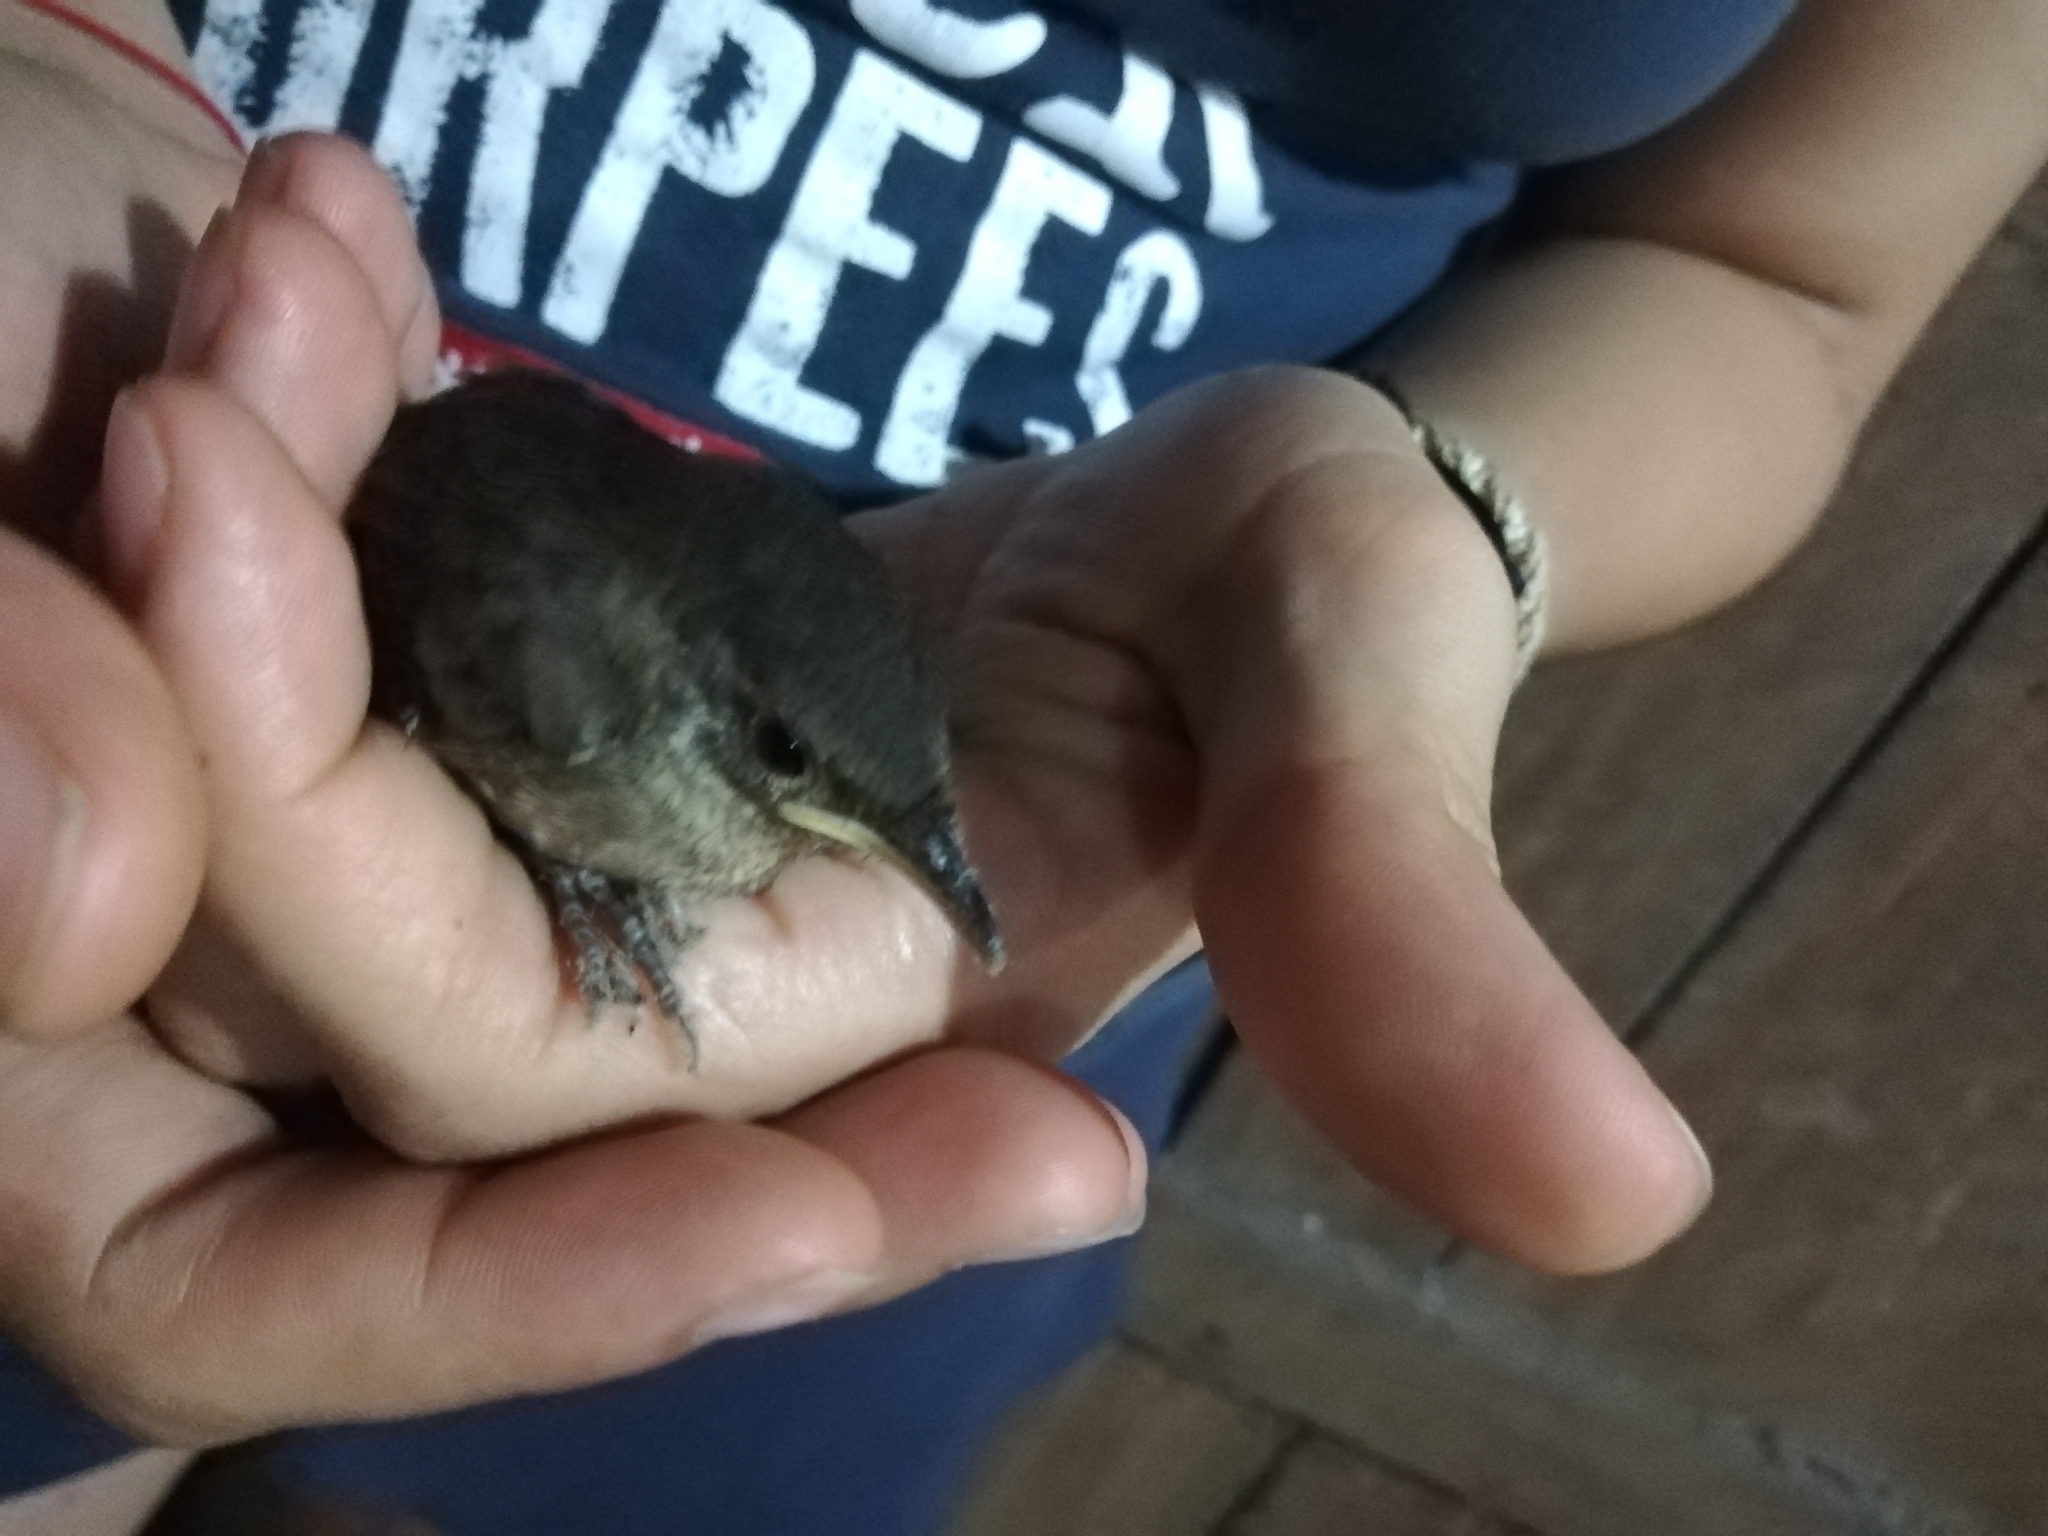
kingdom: Animalia
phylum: Chordata
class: Aves
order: Passeriformes
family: Troglodytidae
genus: Troglodytes
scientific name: Troglodytes aedon
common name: House wren
